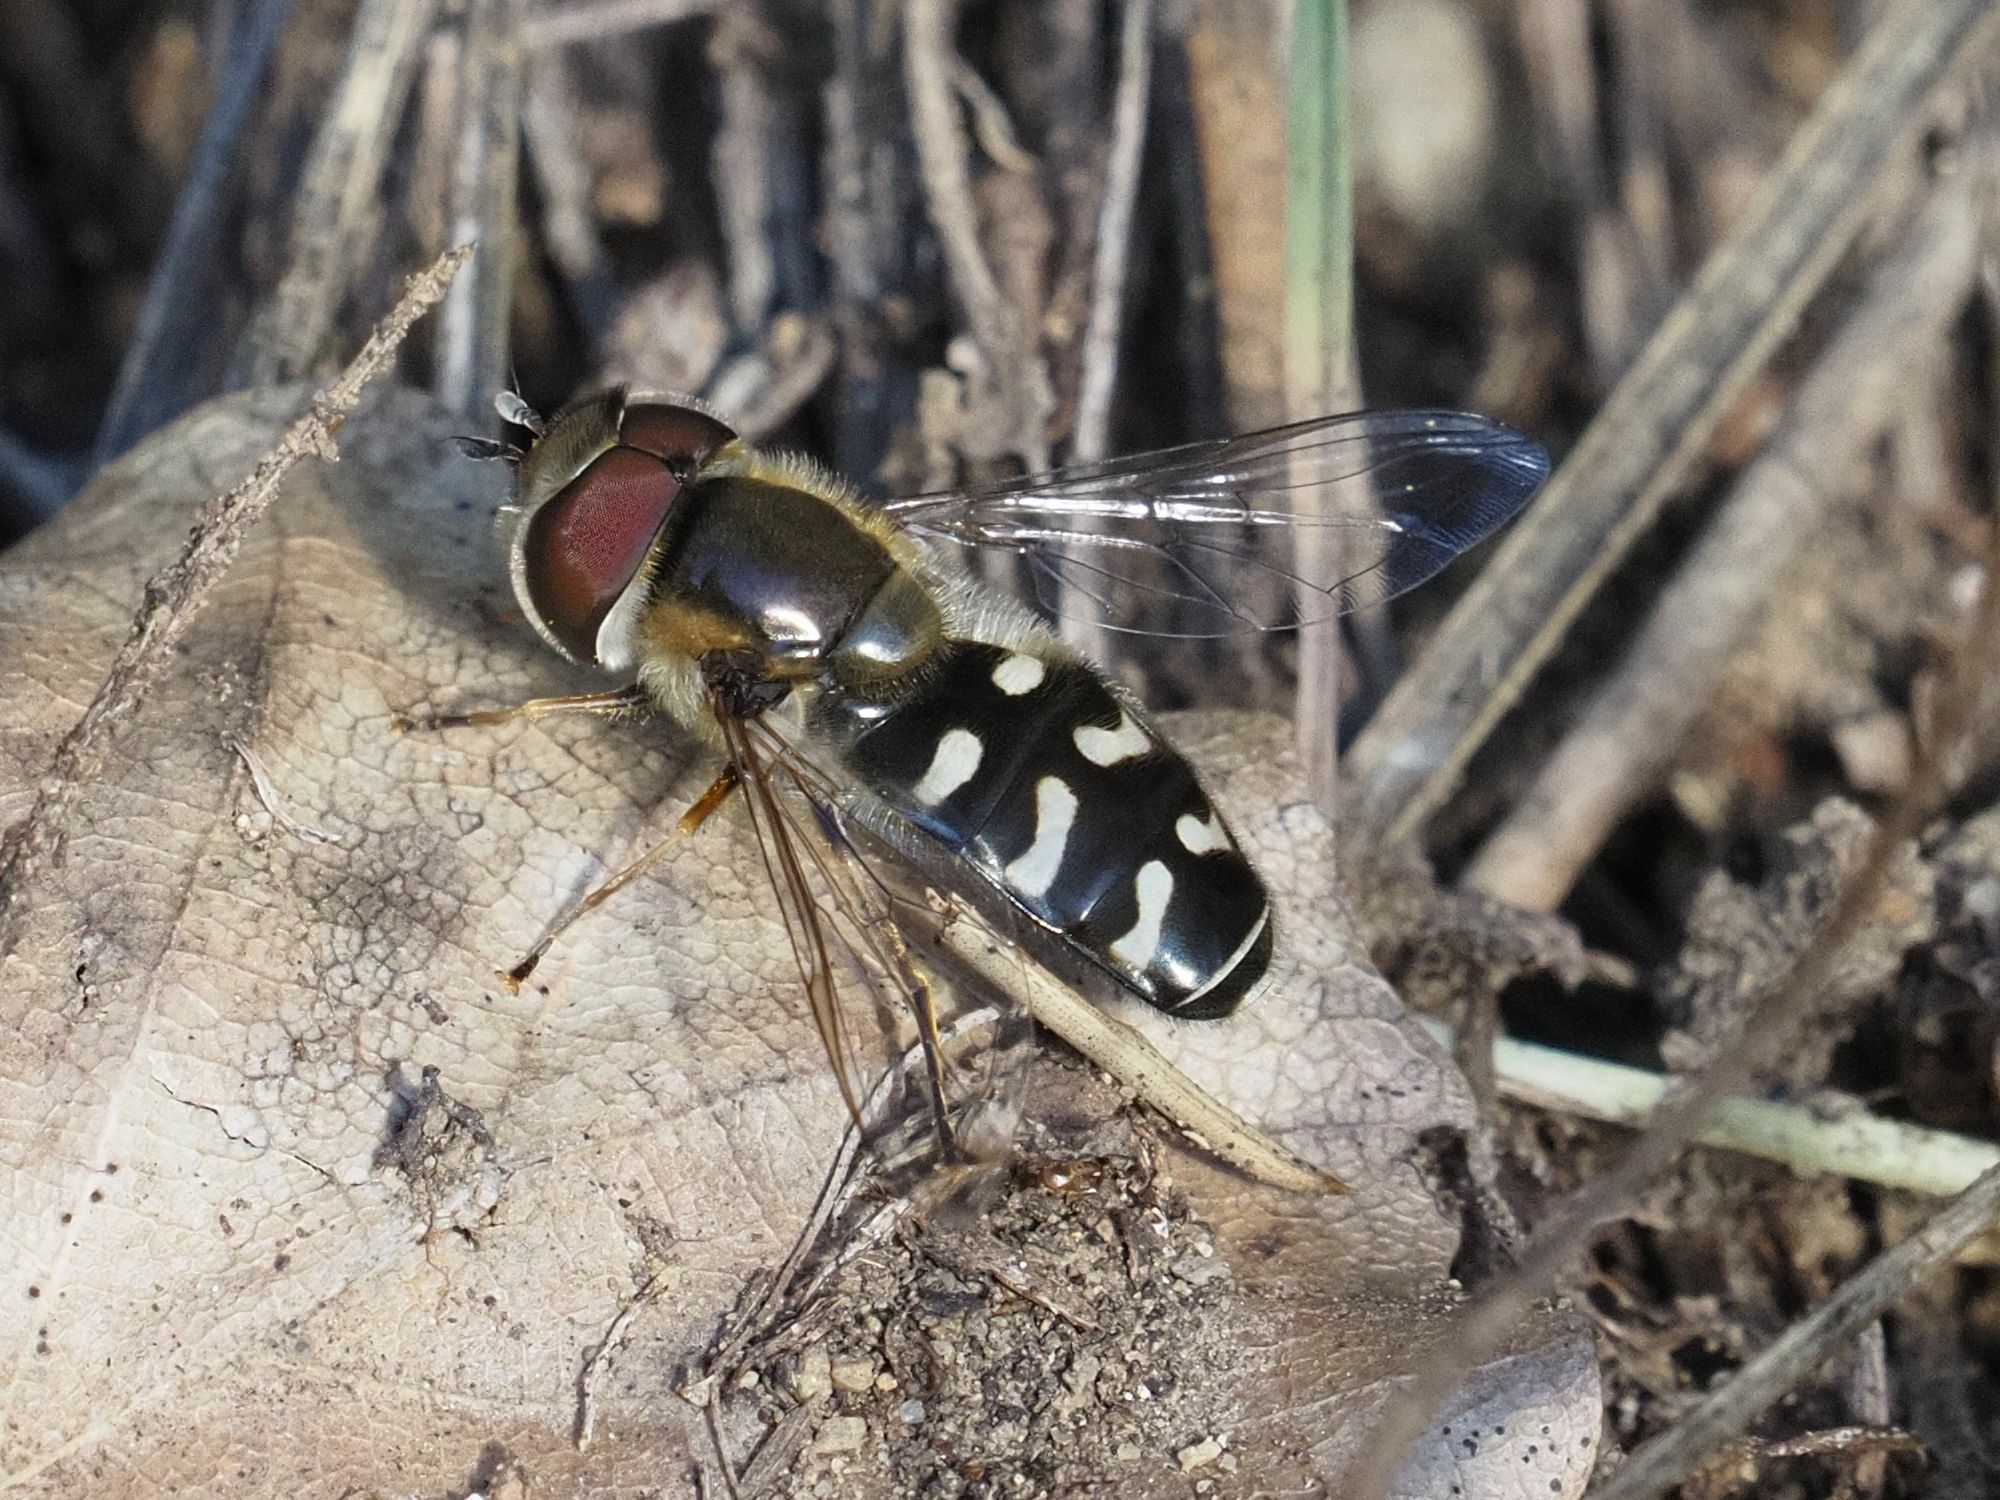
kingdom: Animalia
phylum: Arthropoda
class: Insecta
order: Diptera
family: Syrphidae
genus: Scaeva
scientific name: Scaeva pyrastri
